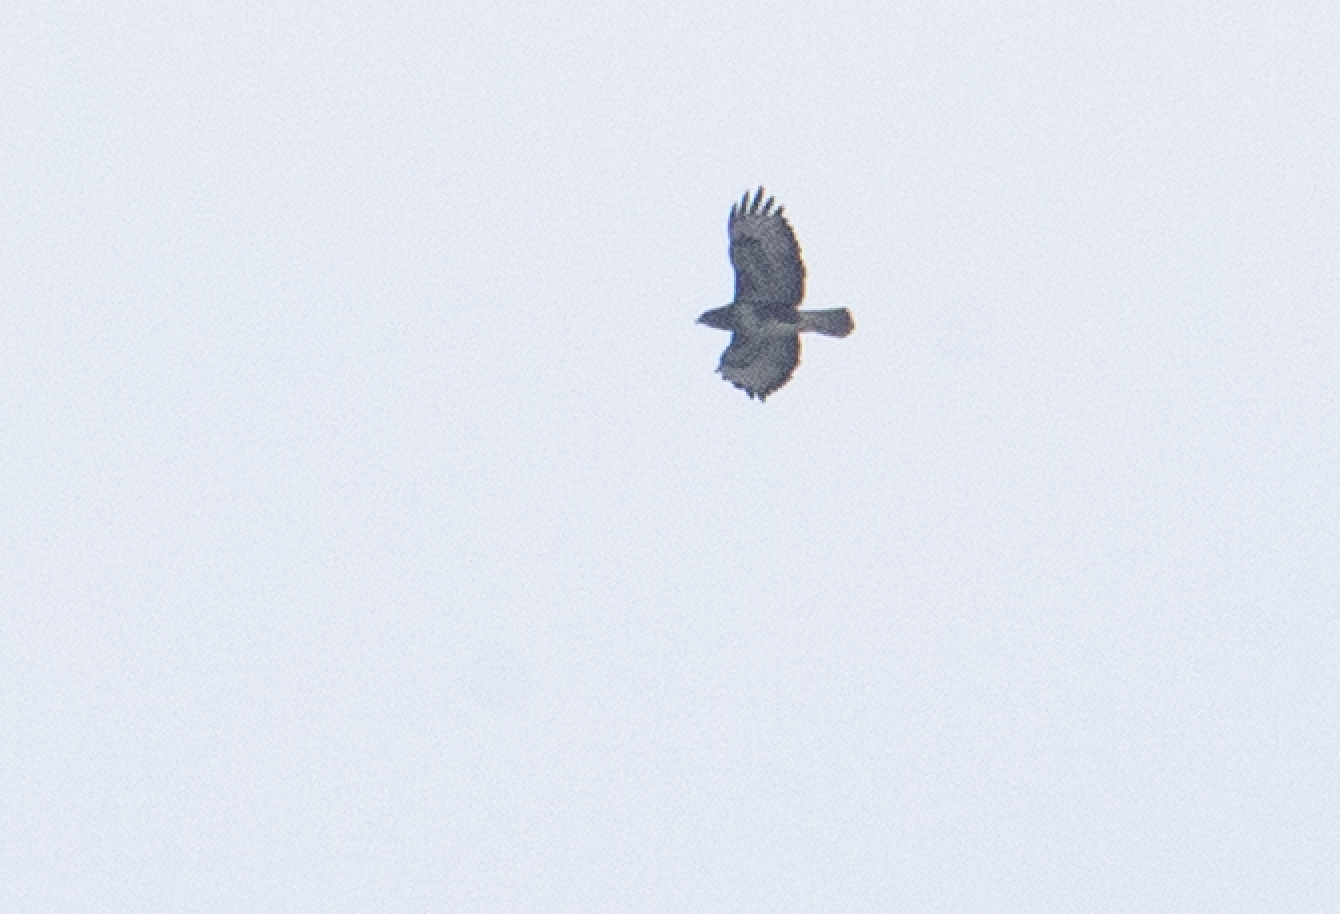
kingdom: Animalia
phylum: Chordata
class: Aves
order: Accipitriformes
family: Accipitridae
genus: Buteo
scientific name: Buteo buteo
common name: Common buzzard
